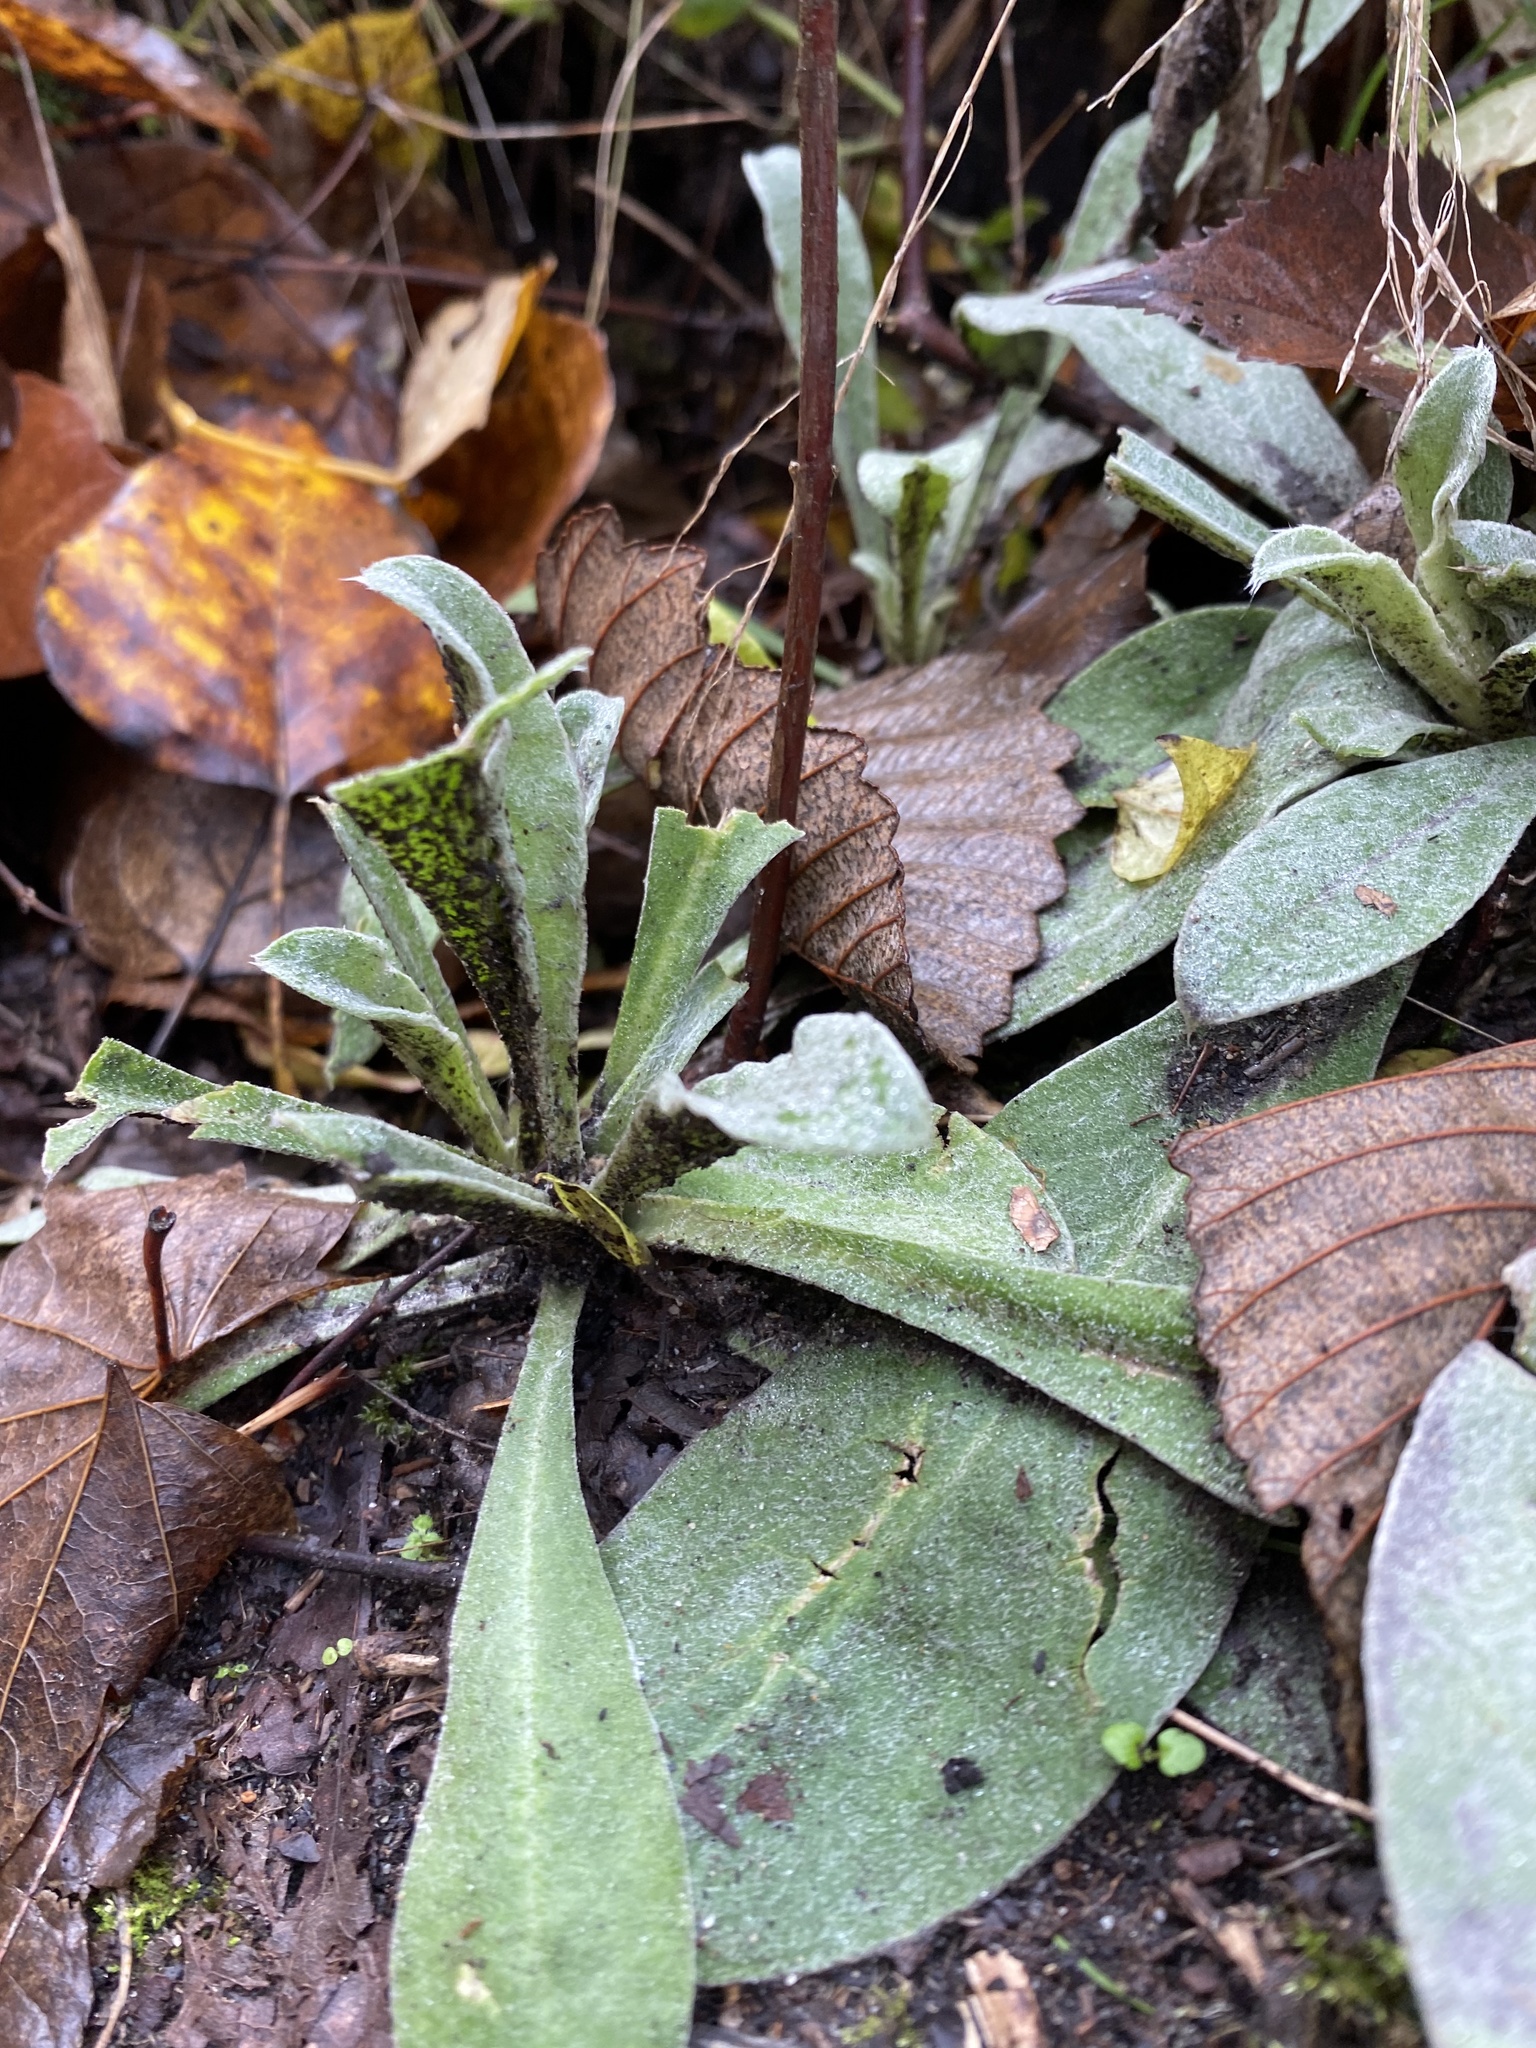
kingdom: Plantae
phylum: Tracheophyta
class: Magnoliopsida
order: Caryophyllales
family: Caryophyllaceae
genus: Silene
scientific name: Silene coronaria
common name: Rose campion
